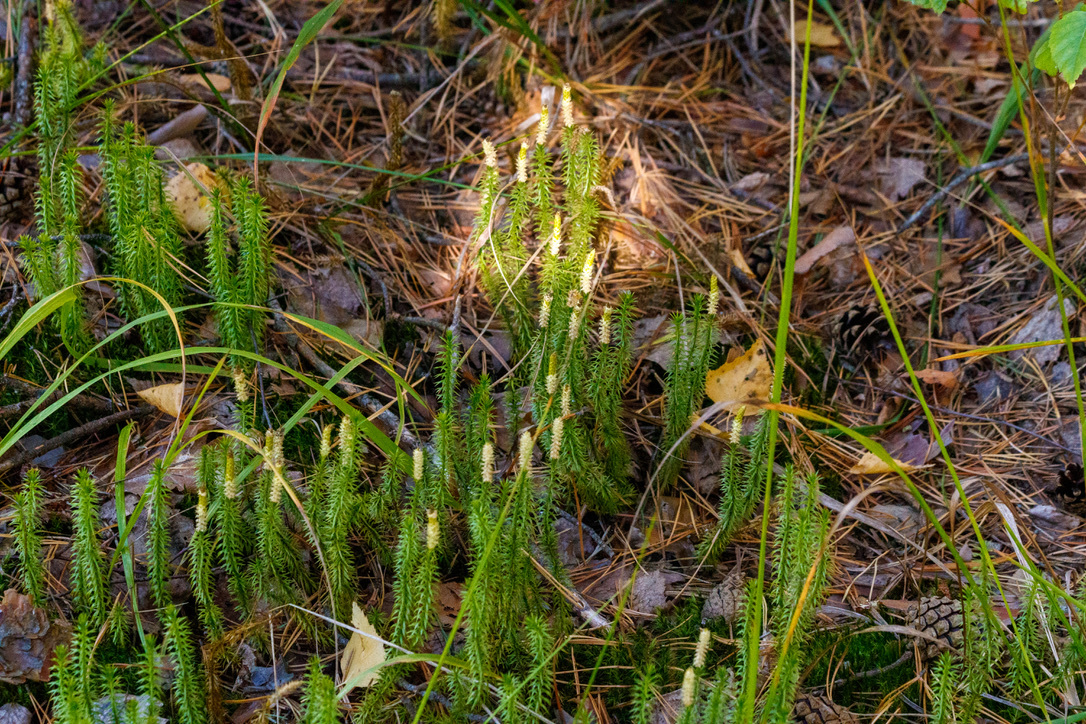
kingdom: Plantae
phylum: Tracheophyta
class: Lycopodiopsida
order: Lycopodiales
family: Lycopodiaceae
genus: Spinulum
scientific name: Spinulum annotinum
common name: Interrupted club-moss
